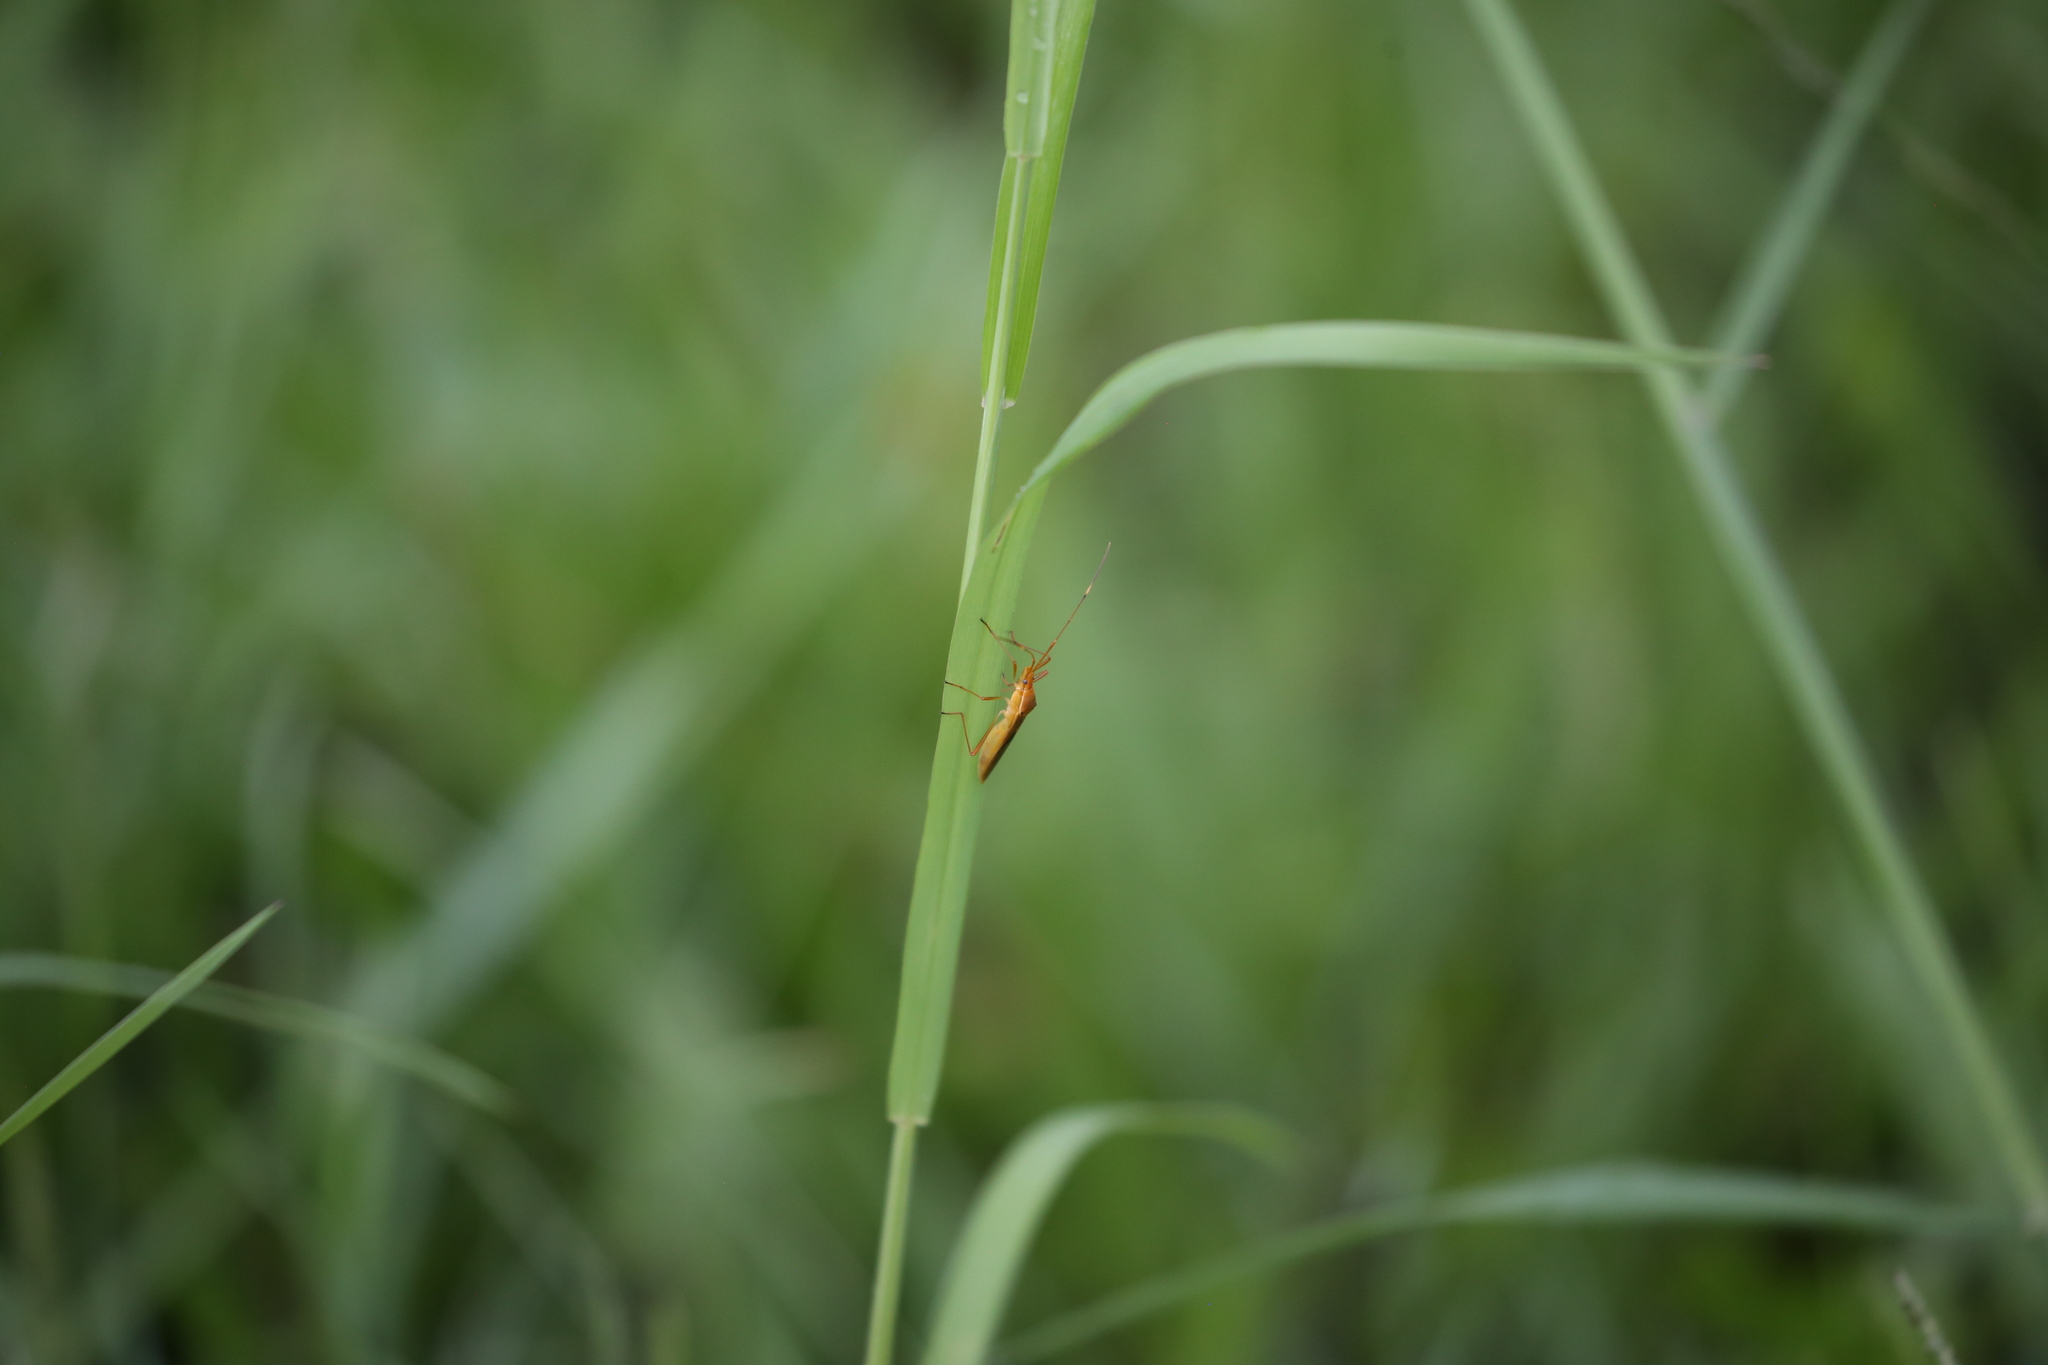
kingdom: Animalia
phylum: Arthropoda
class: Insecta
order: Hemiptera
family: Alydidae
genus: Leptocorisa
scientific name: Leptocorisa acuta
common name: Gandhi bug
